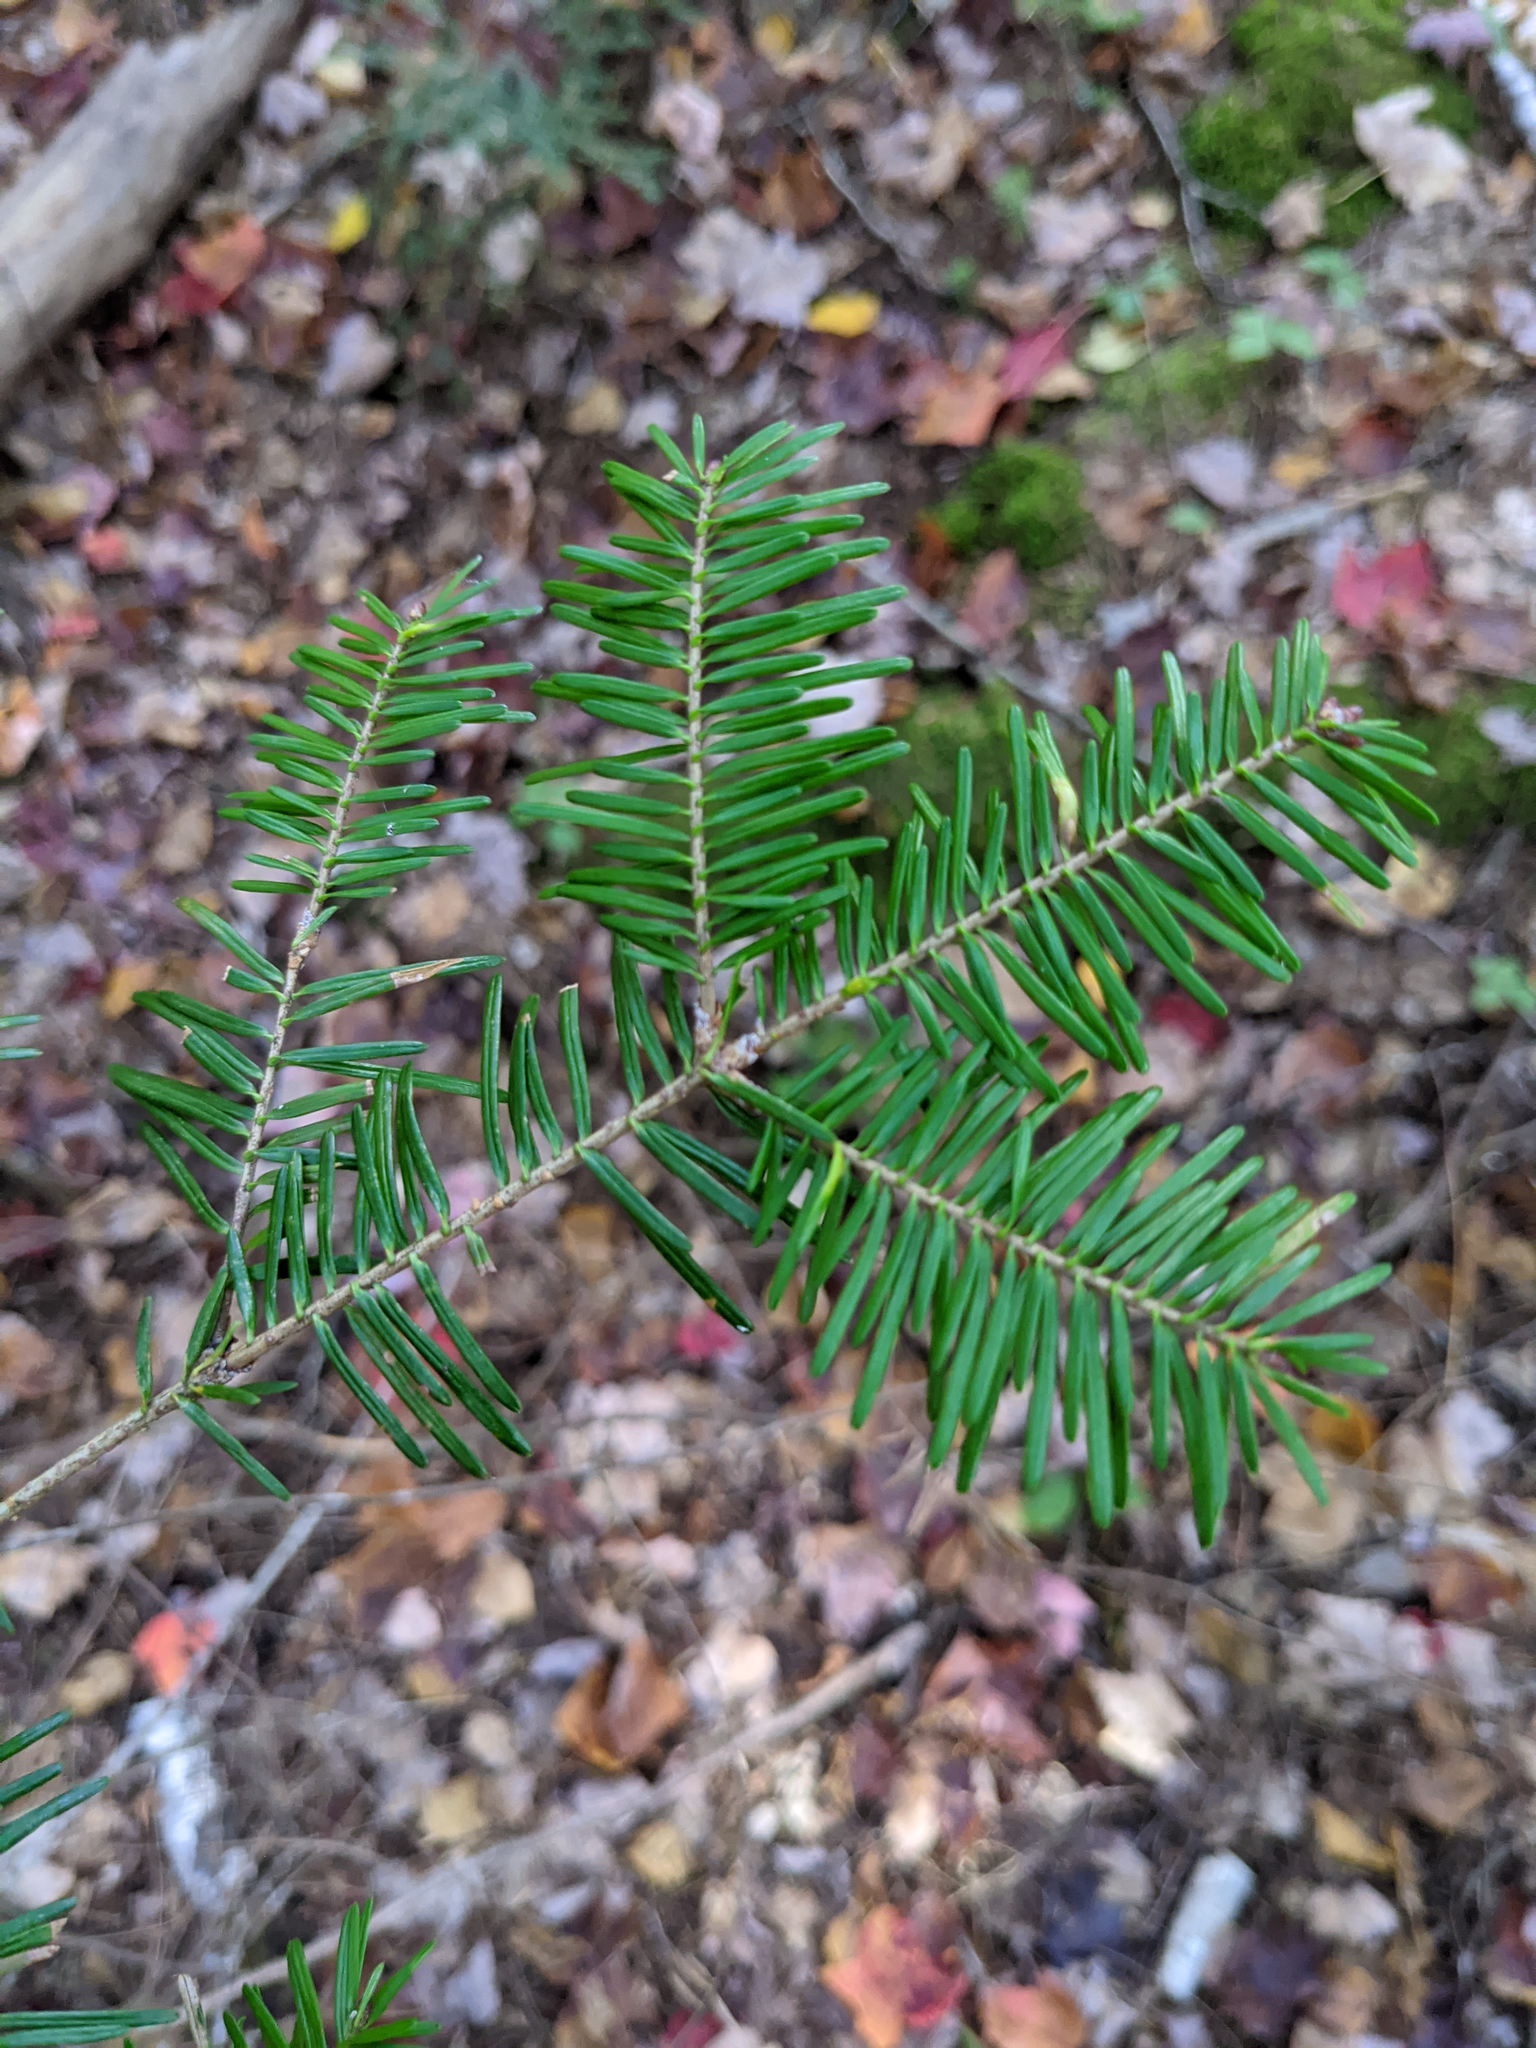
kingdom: Plantae
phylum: Tracheophyta
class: Pinopsida
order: Pinales
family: Pinaceae
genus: Abies
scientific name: Abies balsamea
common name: Balsam fir
